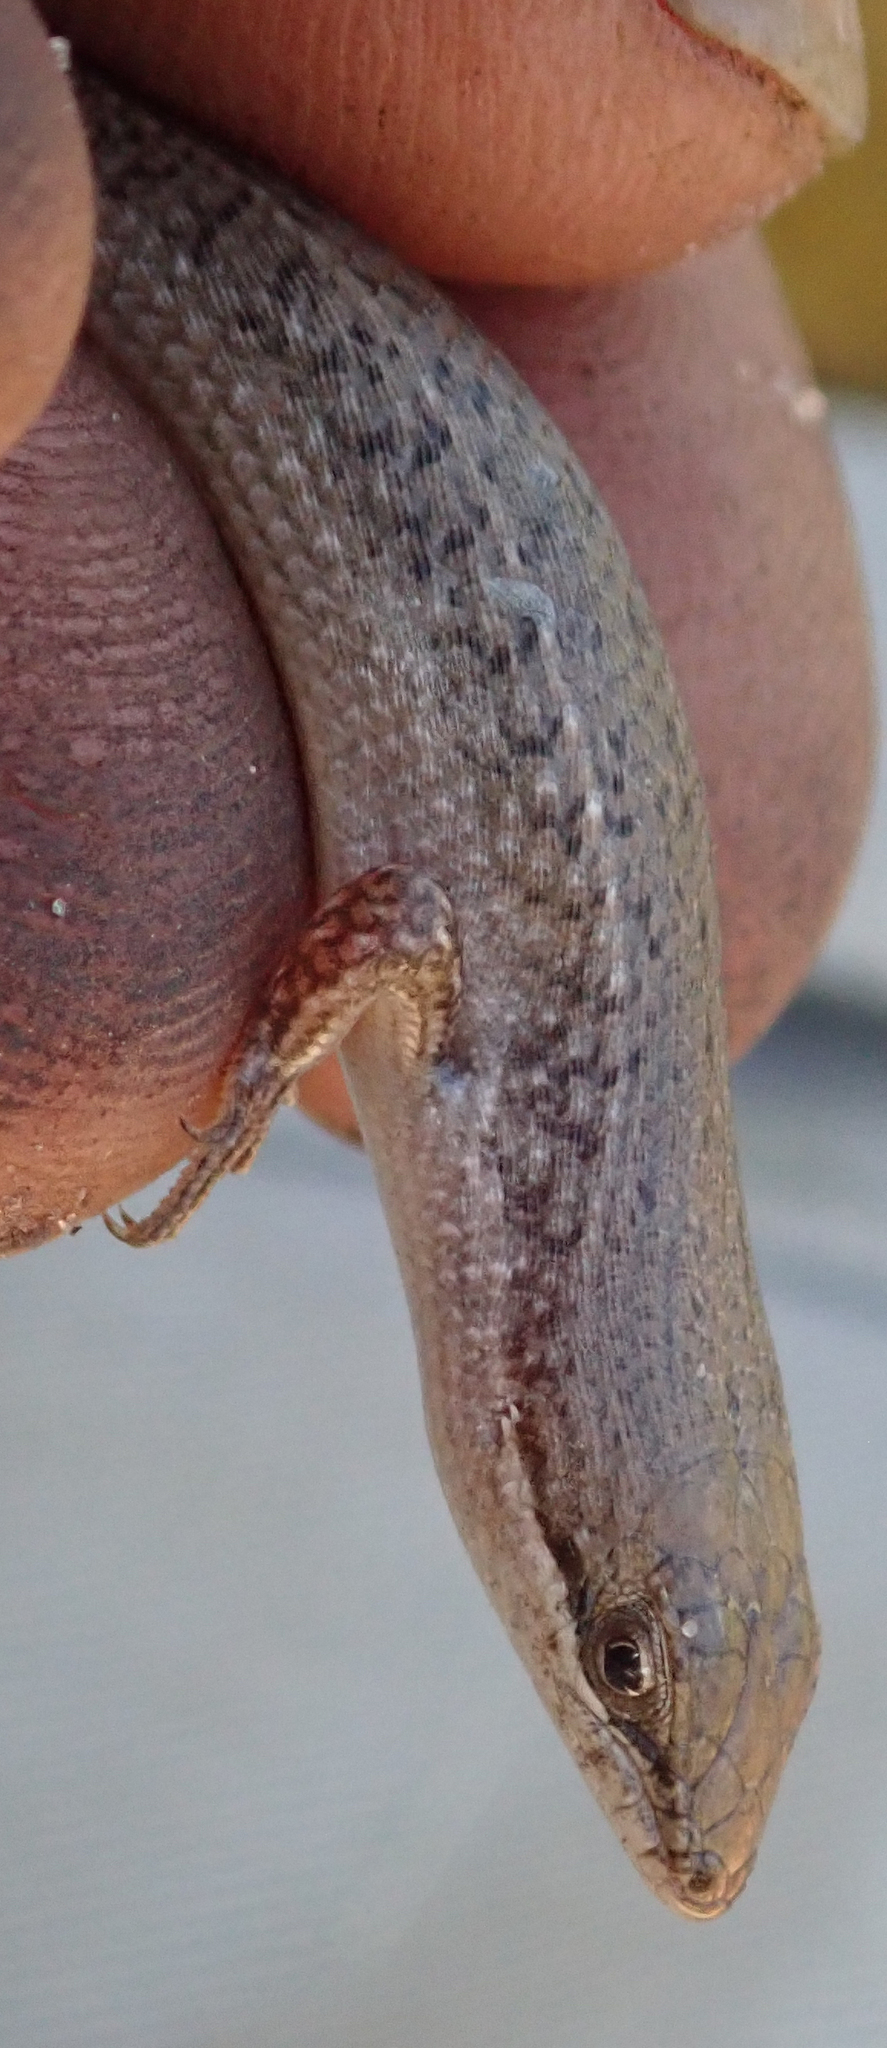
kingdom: Animalia
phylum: Chordata
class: Squamata
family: Scincidae
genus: Trachylepis
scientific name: Trachylepis punctulata
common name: Speckled sand skink
